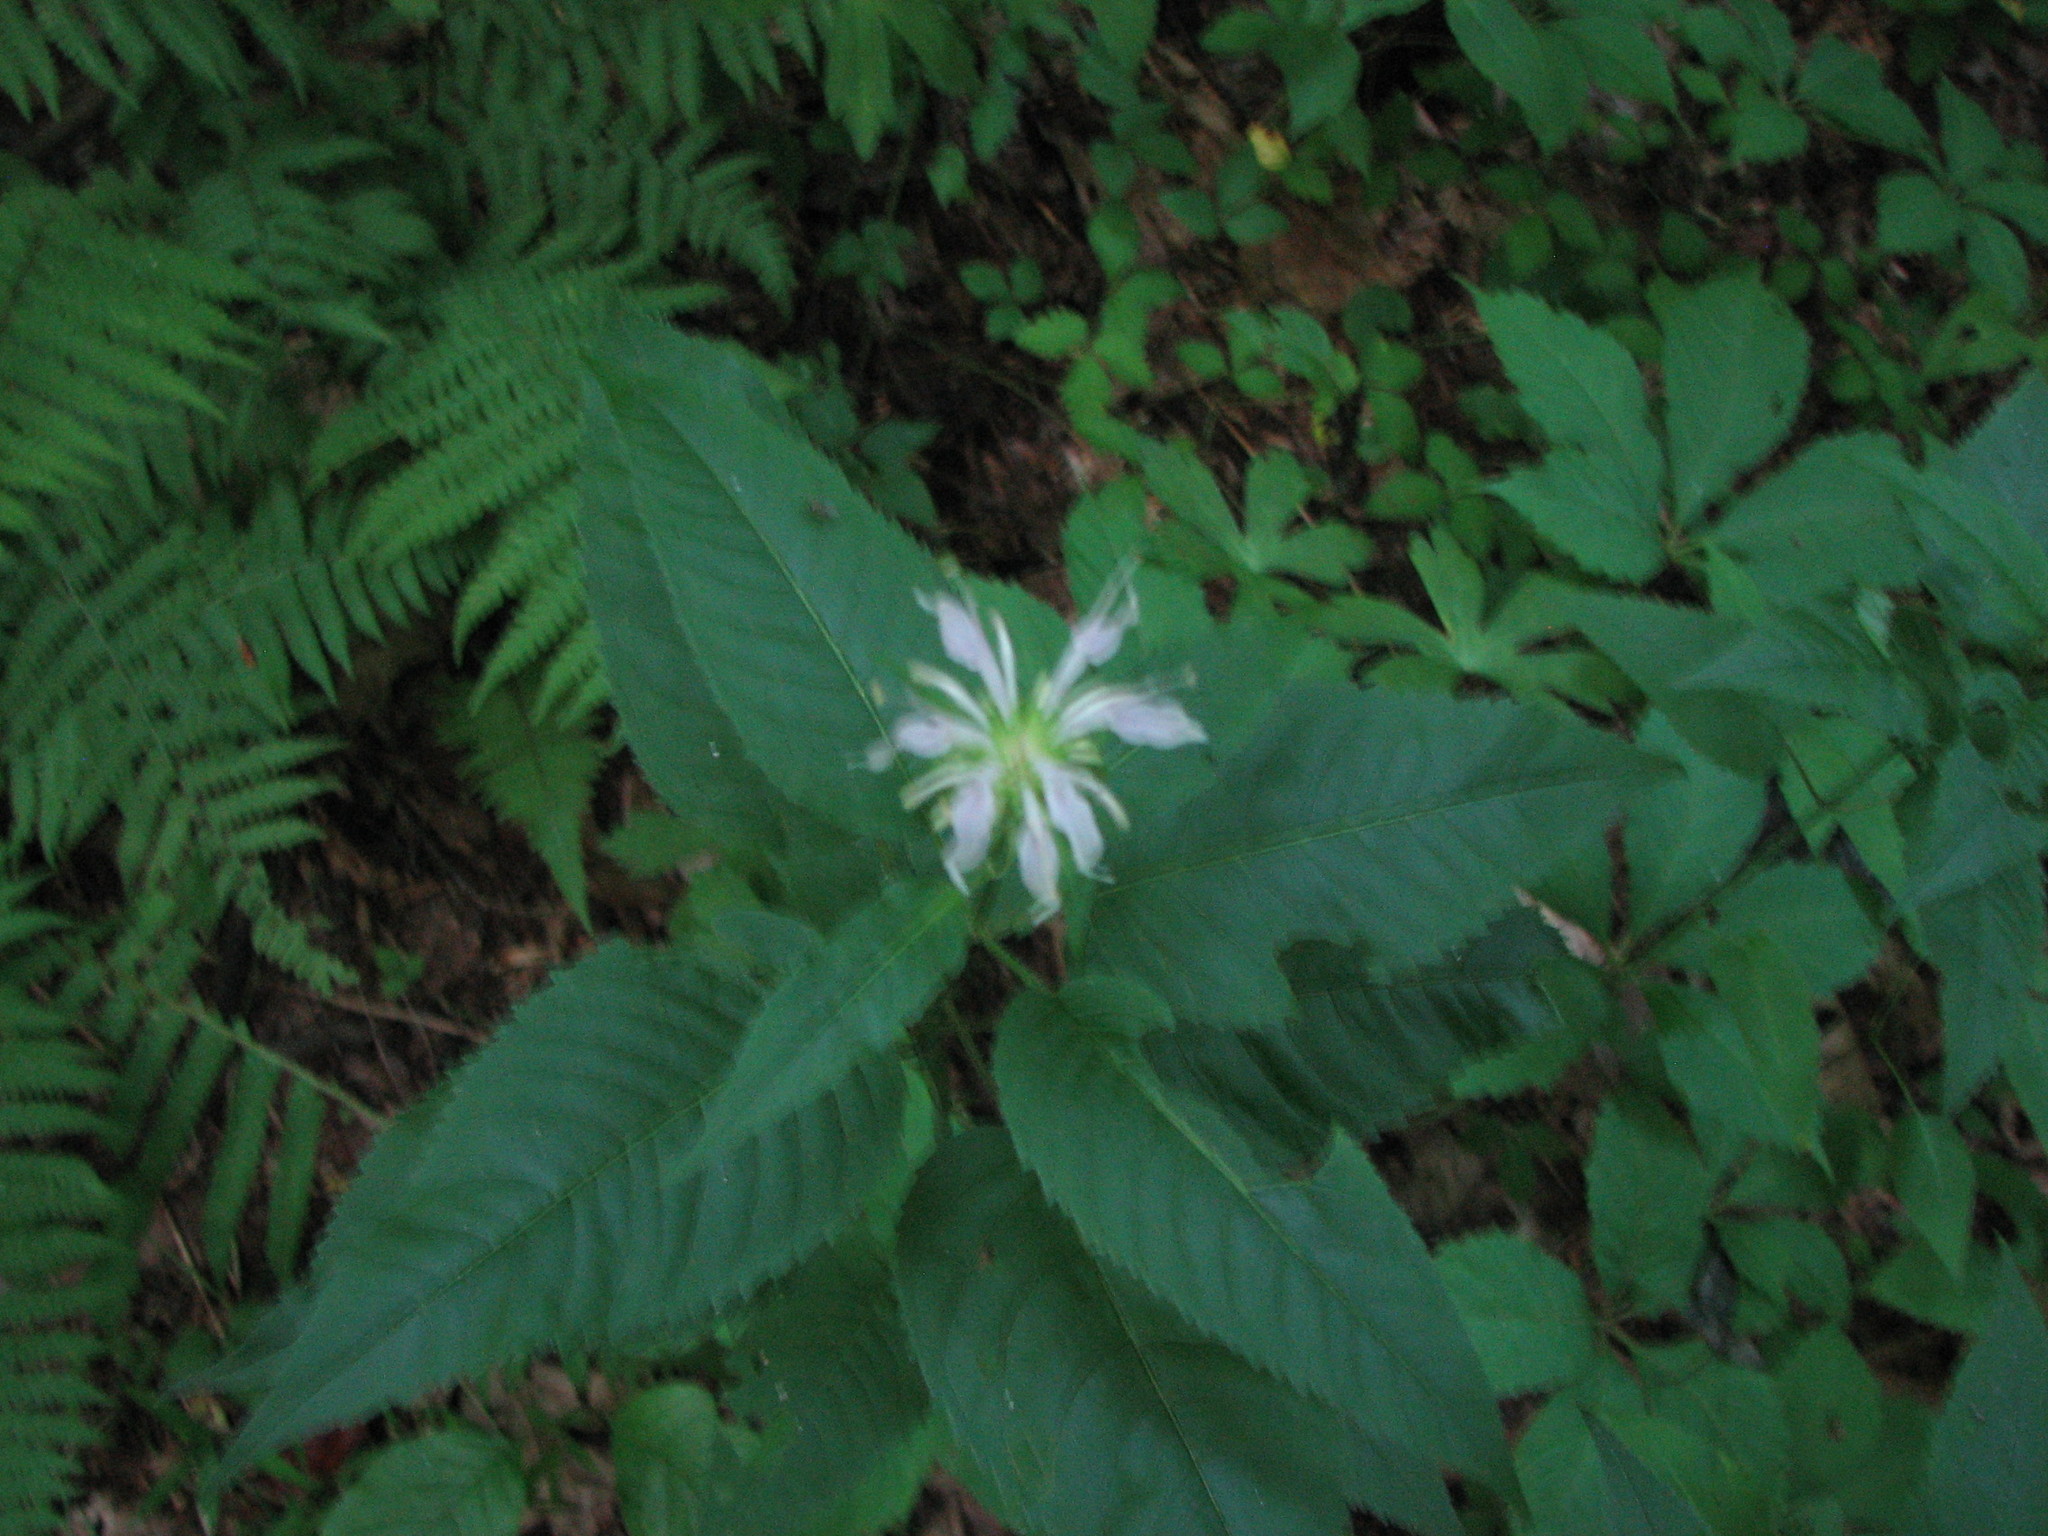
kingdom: Plantae
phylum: Tracheophyta
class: Magnoliopsida
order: Lamiales
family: Lamiaceae
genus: Monarda
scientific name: Monarda fistulosa
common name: Purple beebalm
